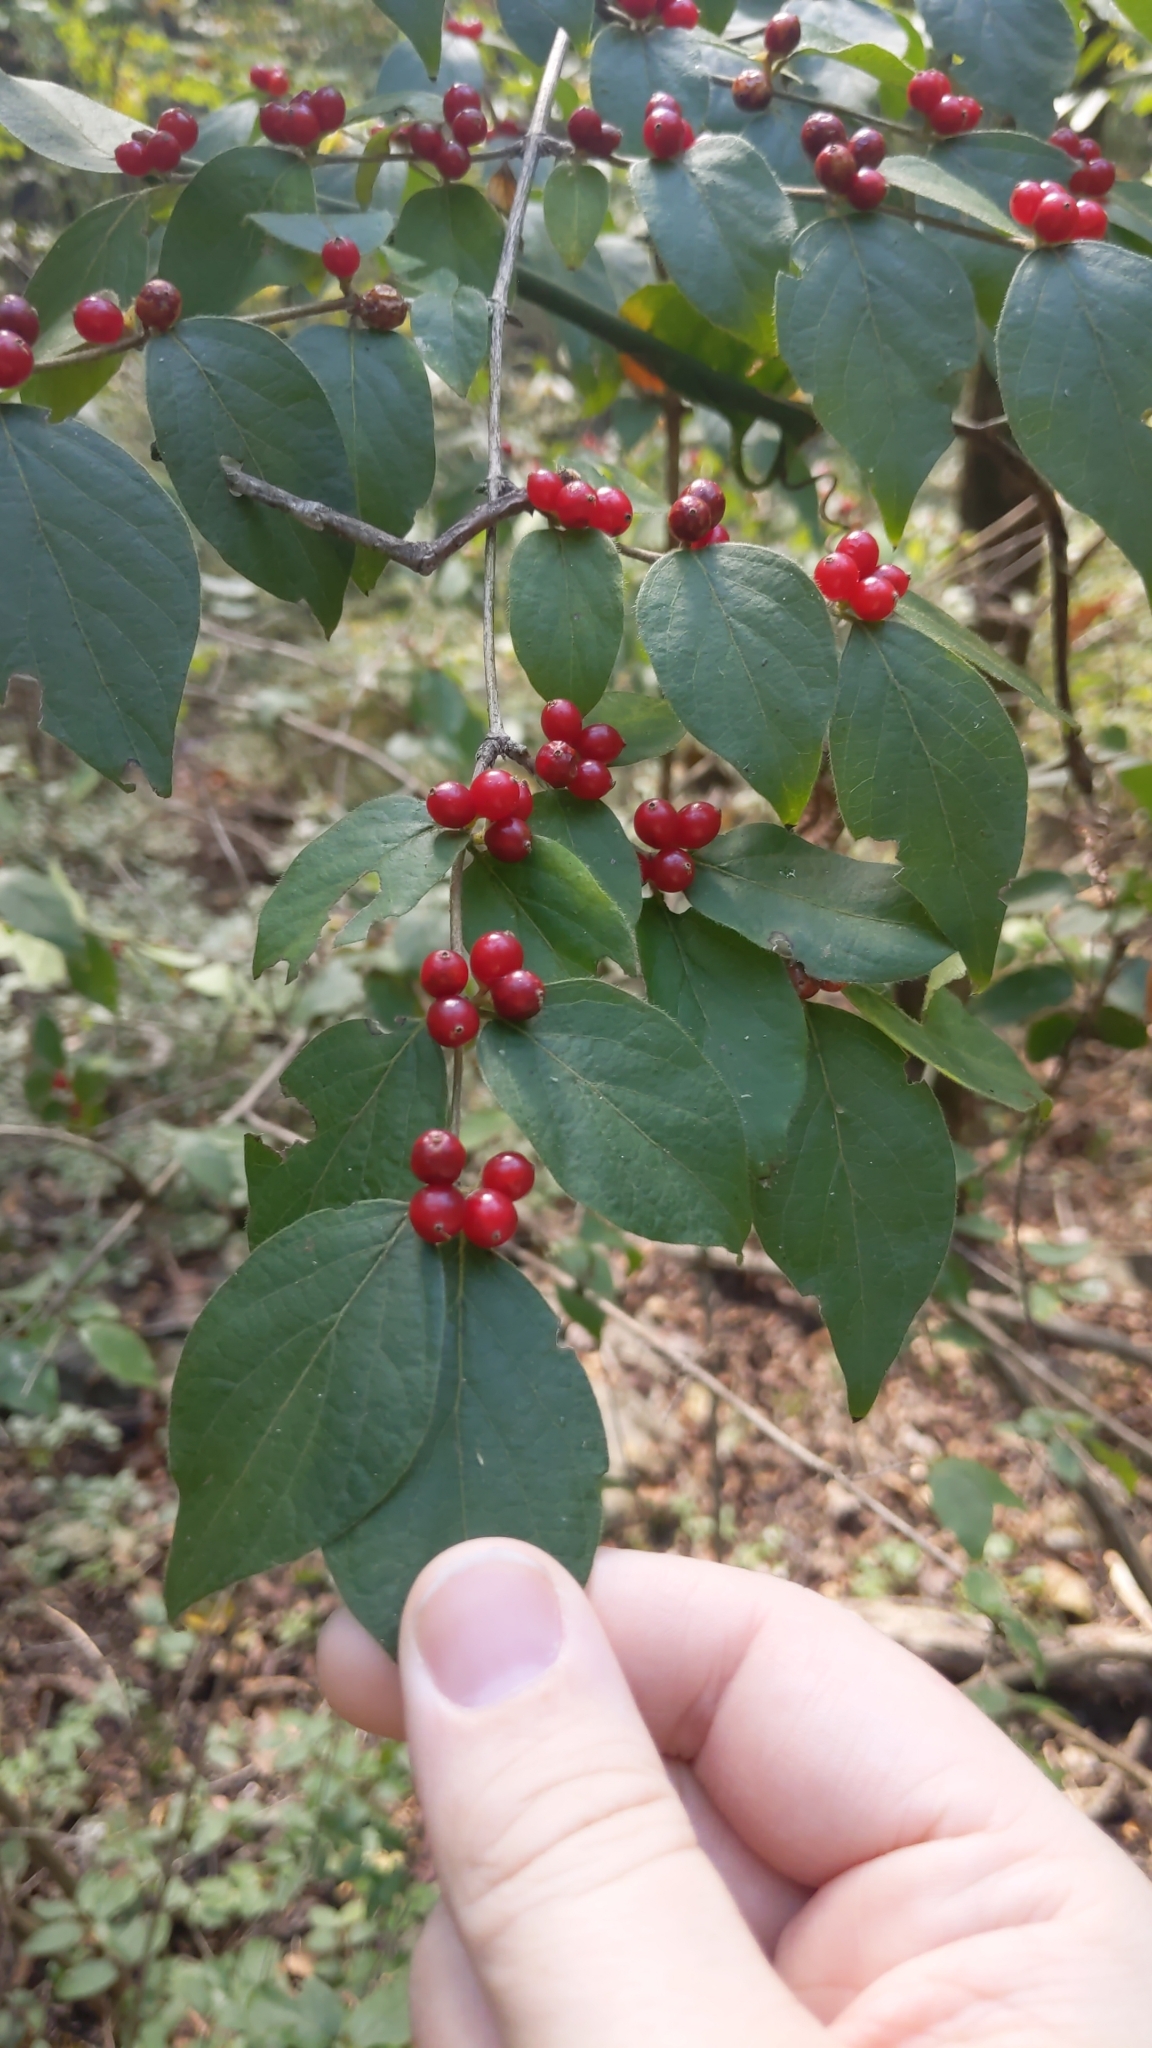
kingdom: Plantae
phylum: Tracheophyta
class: Magnoliopsida
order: Dipsacales
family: Caprifoliaceae
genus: Lonicera
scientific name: Lonicera maackii
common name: Amur honeysuckle
